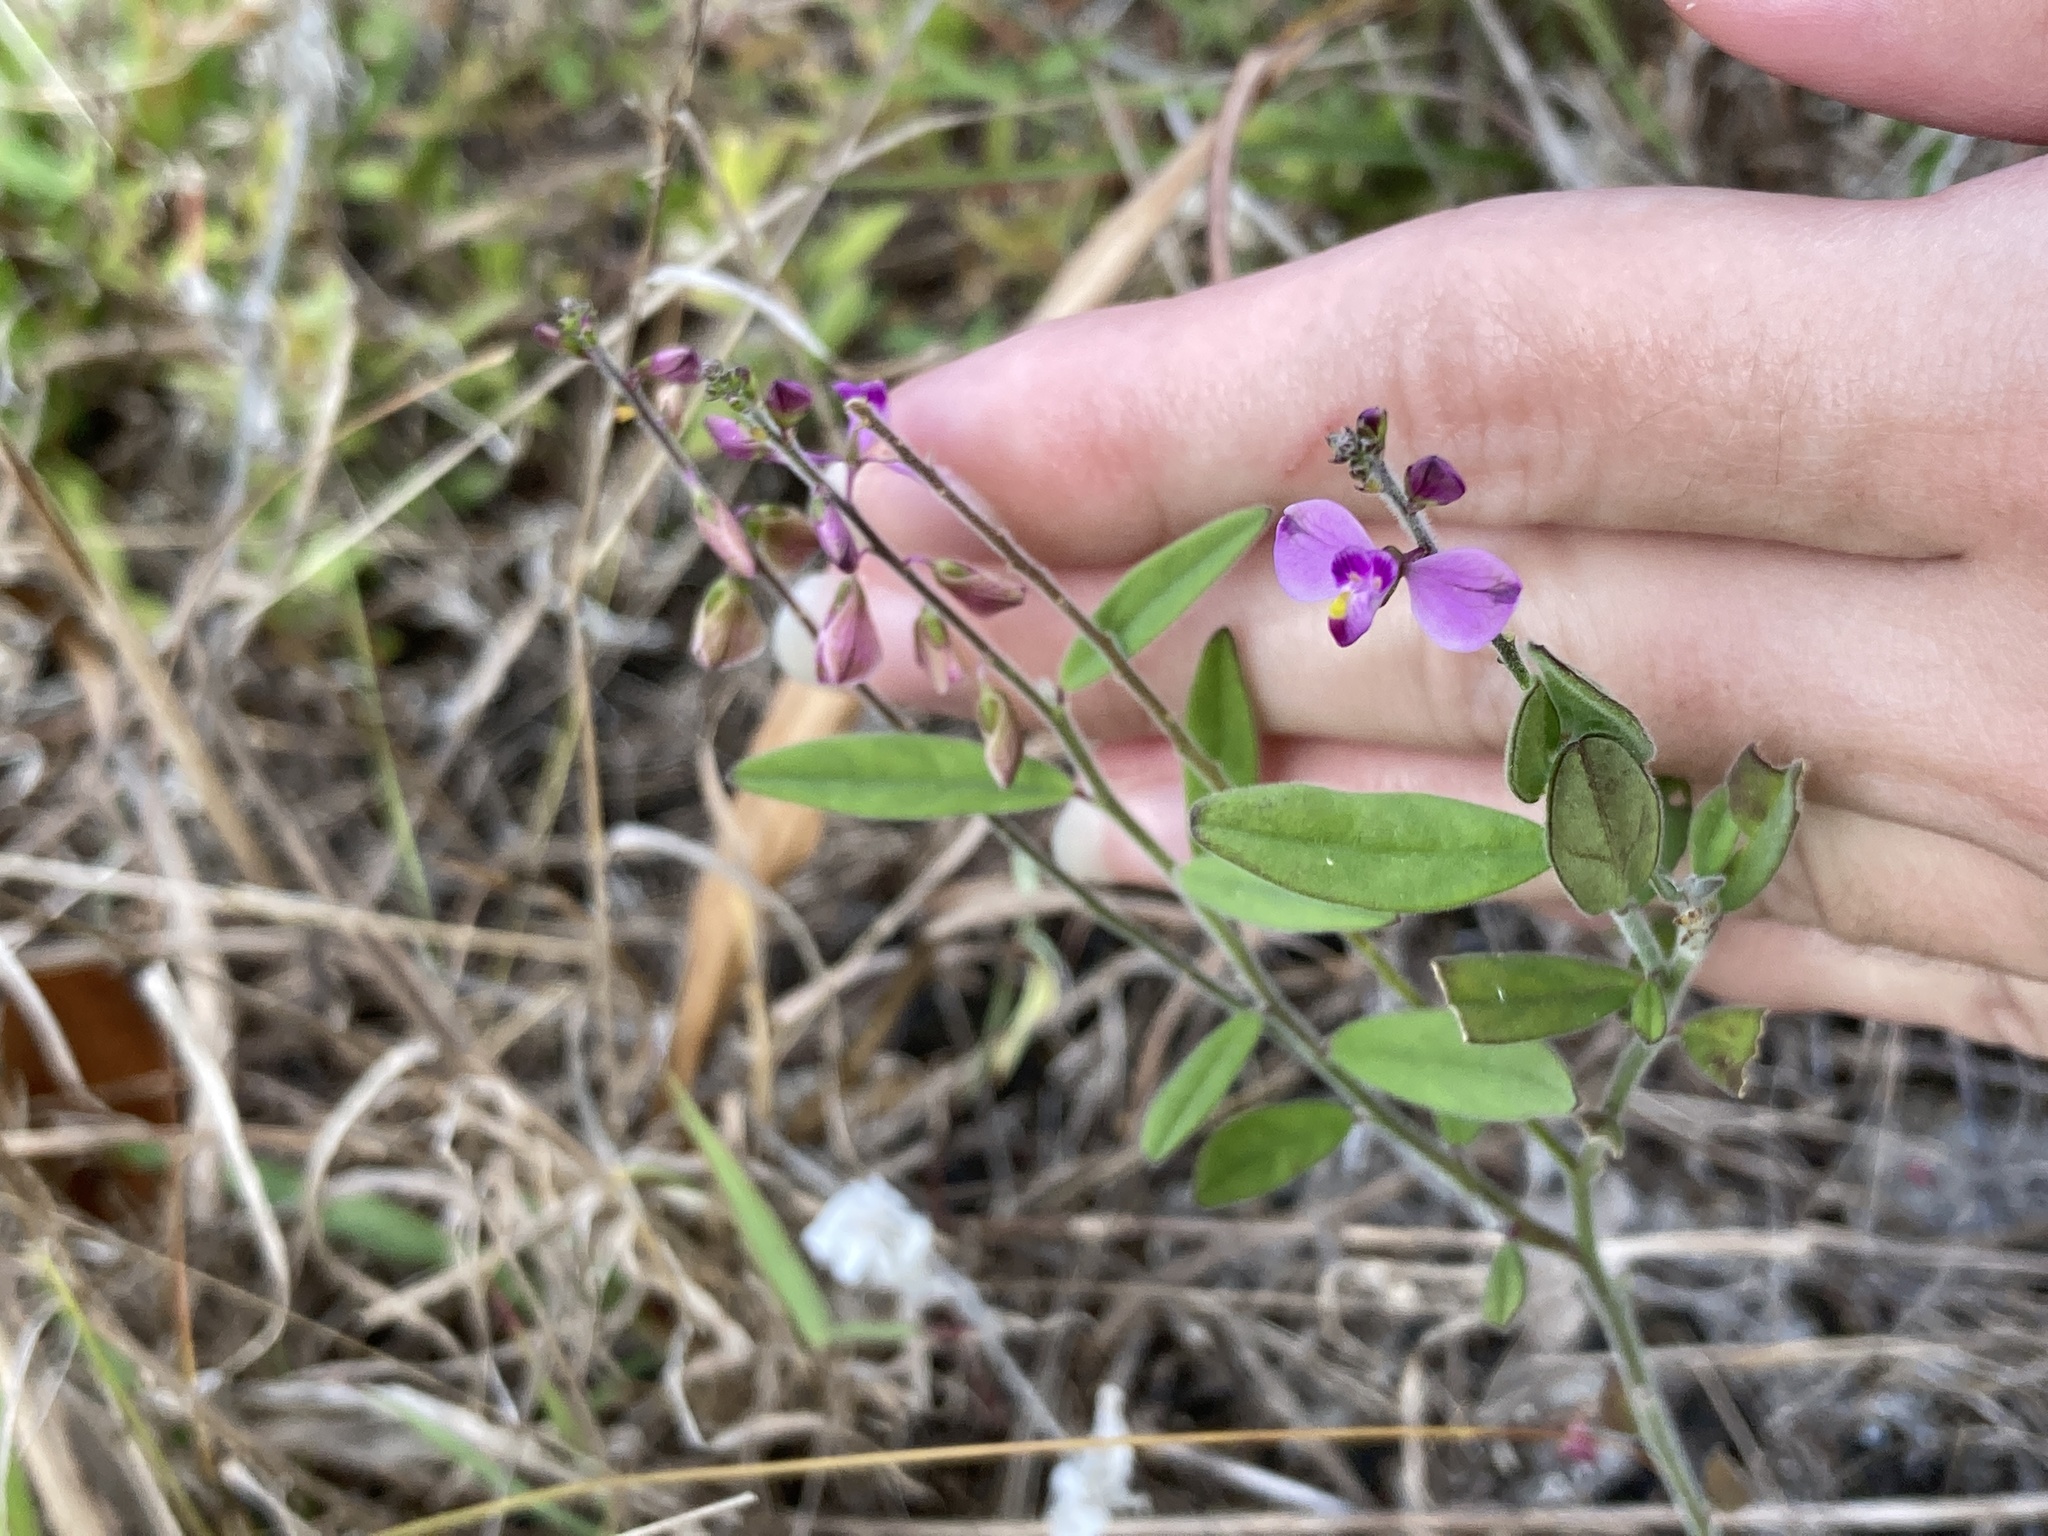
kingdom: Plantae
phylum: Tracheophyta
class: Magnoliopsida
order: Fabales
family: Polygalaceae
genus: Asemeia
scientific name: Asemeia grandiflora
